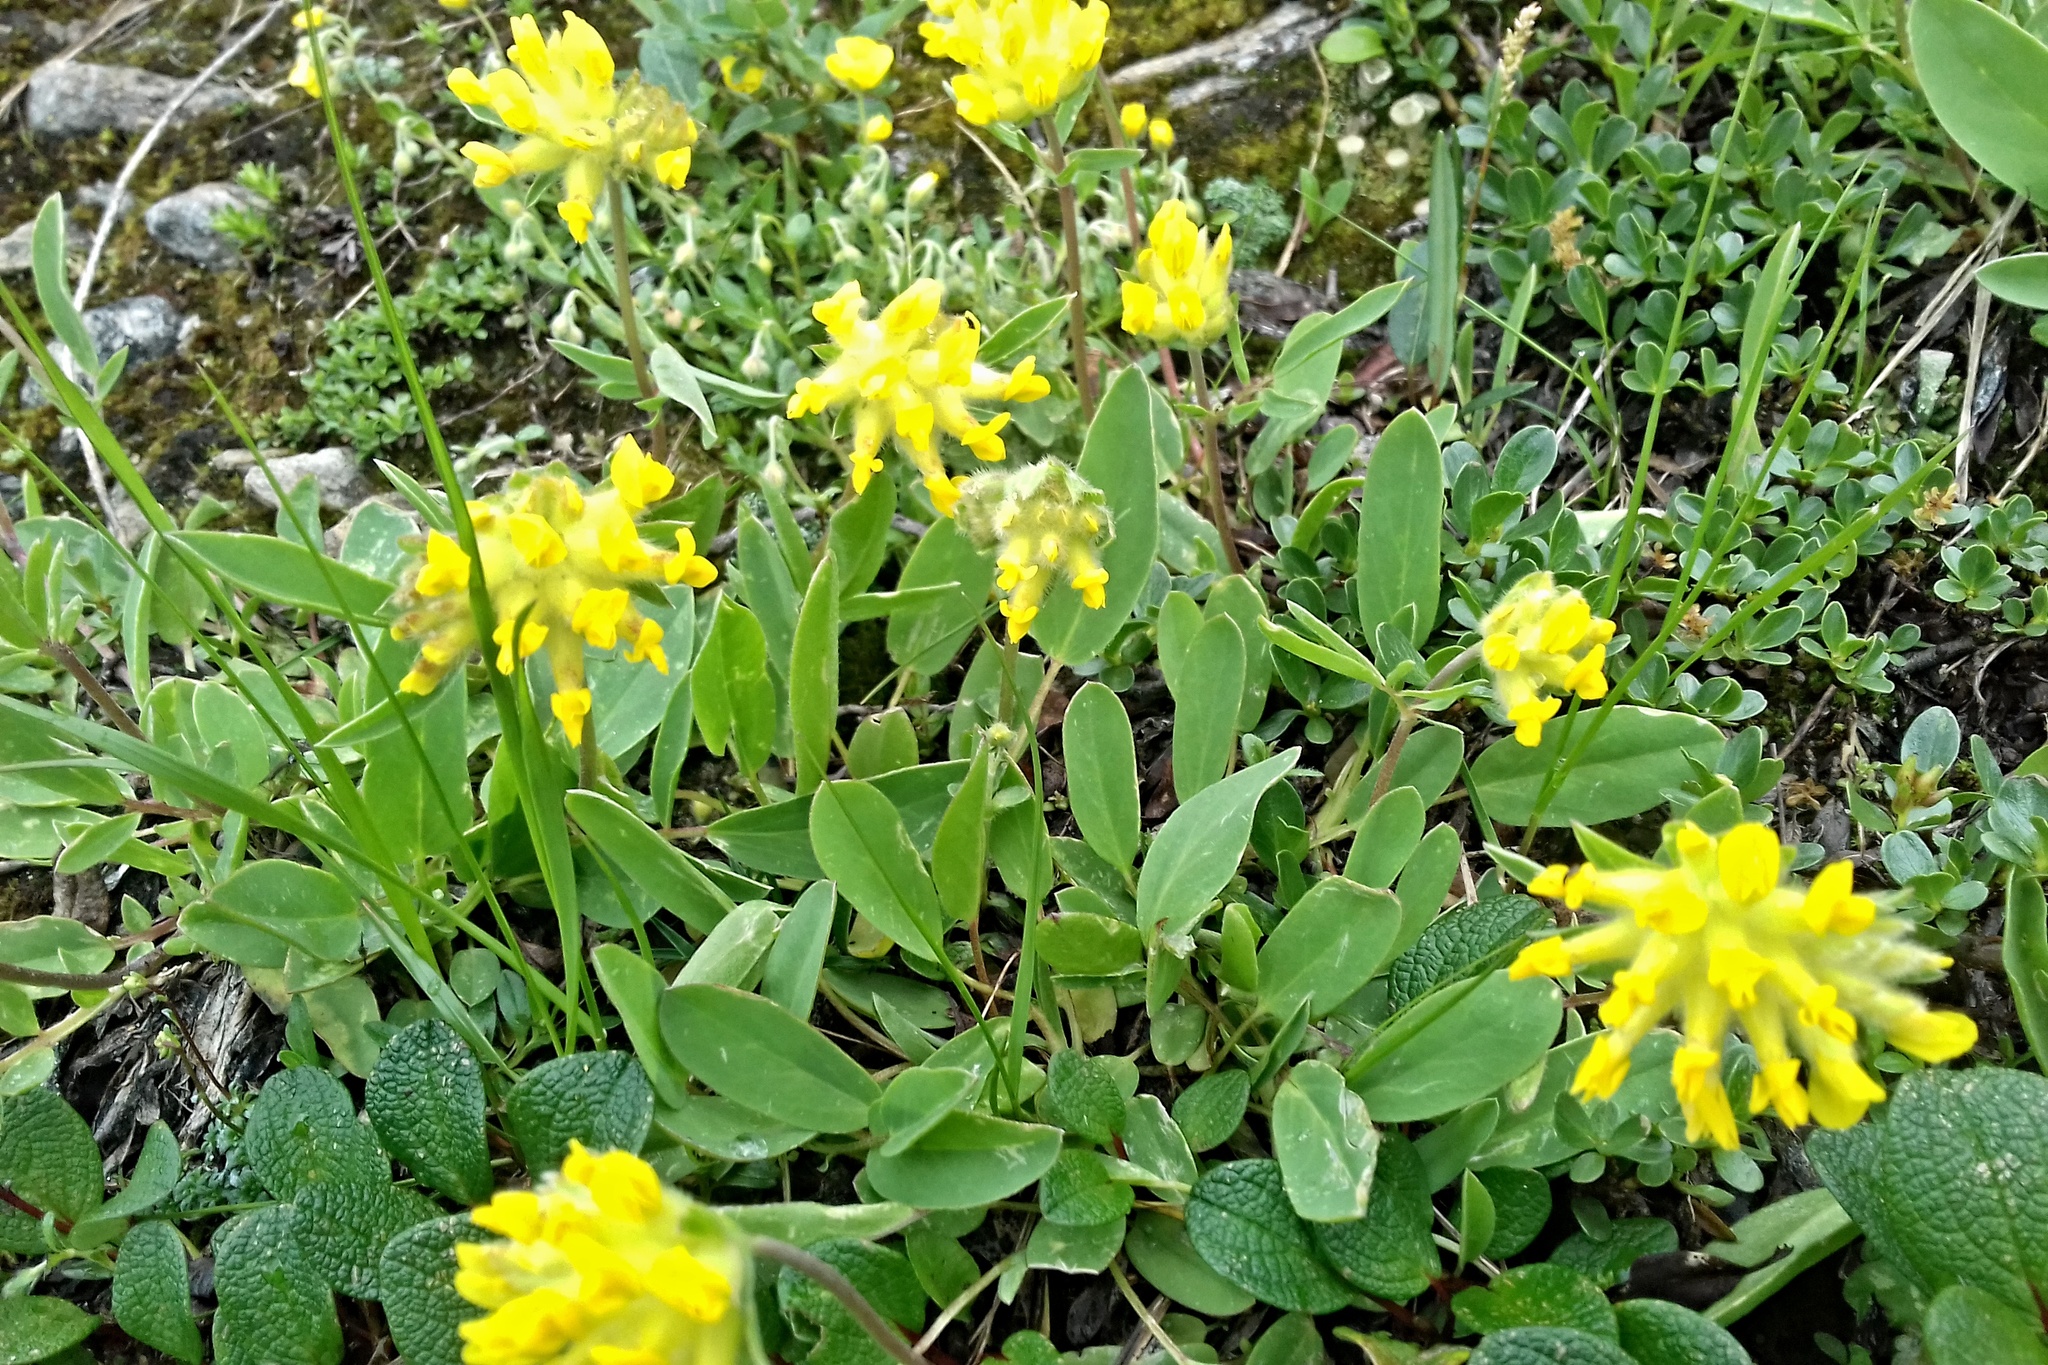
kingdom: Plantae
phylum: Tracheophyta
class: Magnoliopsida
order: Fabales
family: Fabaceae
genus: Anthyllis
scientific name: Anthyllis vulneraria
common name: Kidney vetch
